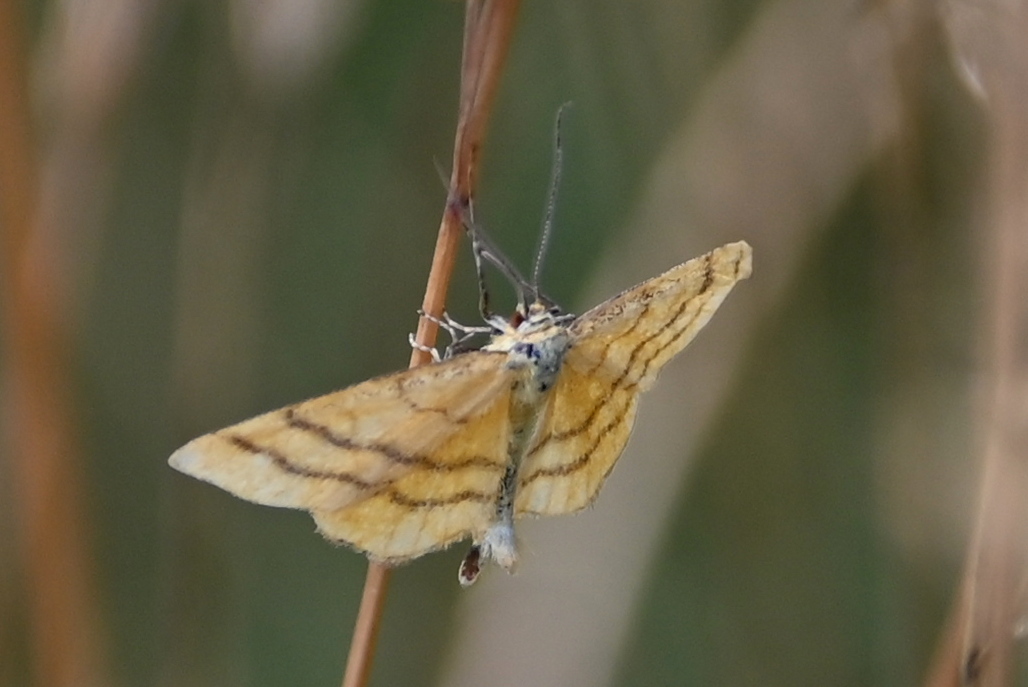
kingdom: Animalia
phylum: Arthropoda
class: Insecta
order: Lepidoptera
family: Geometridae
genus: Idaea
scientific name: Idaea aureolaria
